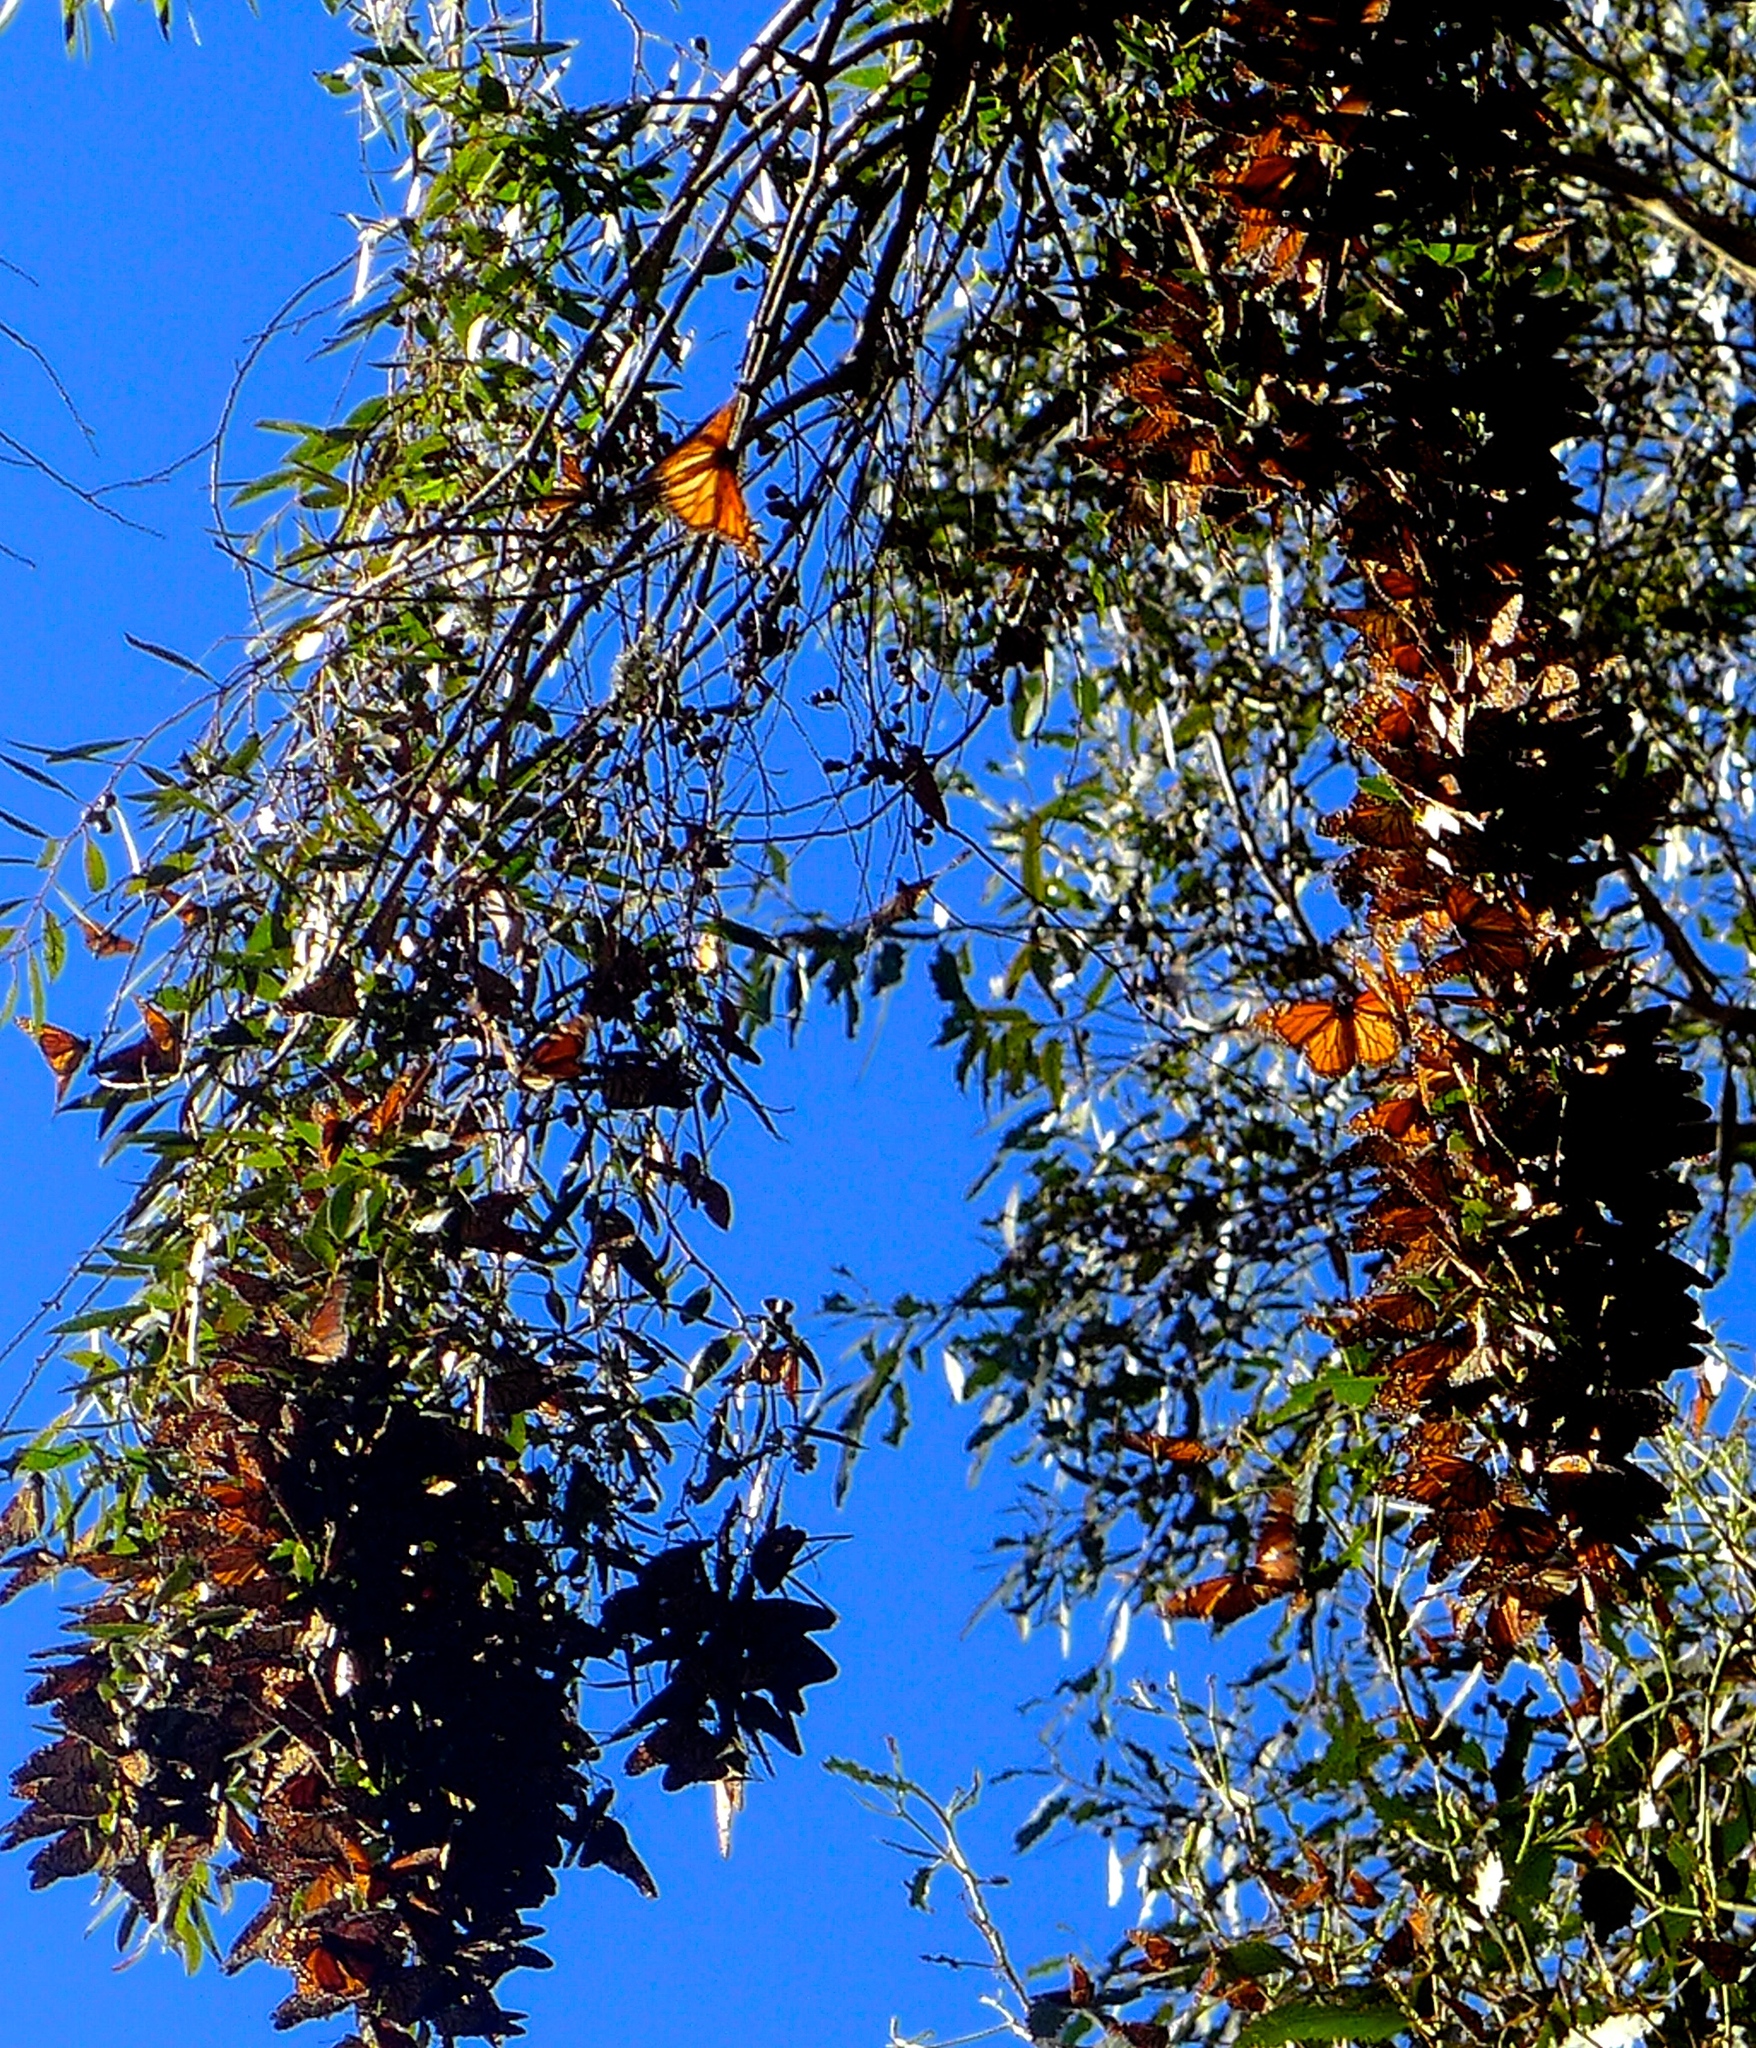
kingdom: Animalia
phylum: Arthropoda
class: Insecta
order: Lepidoptera
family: Nymphalidae
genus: Danaus
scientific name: Danaus plexippus
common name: Monarch
